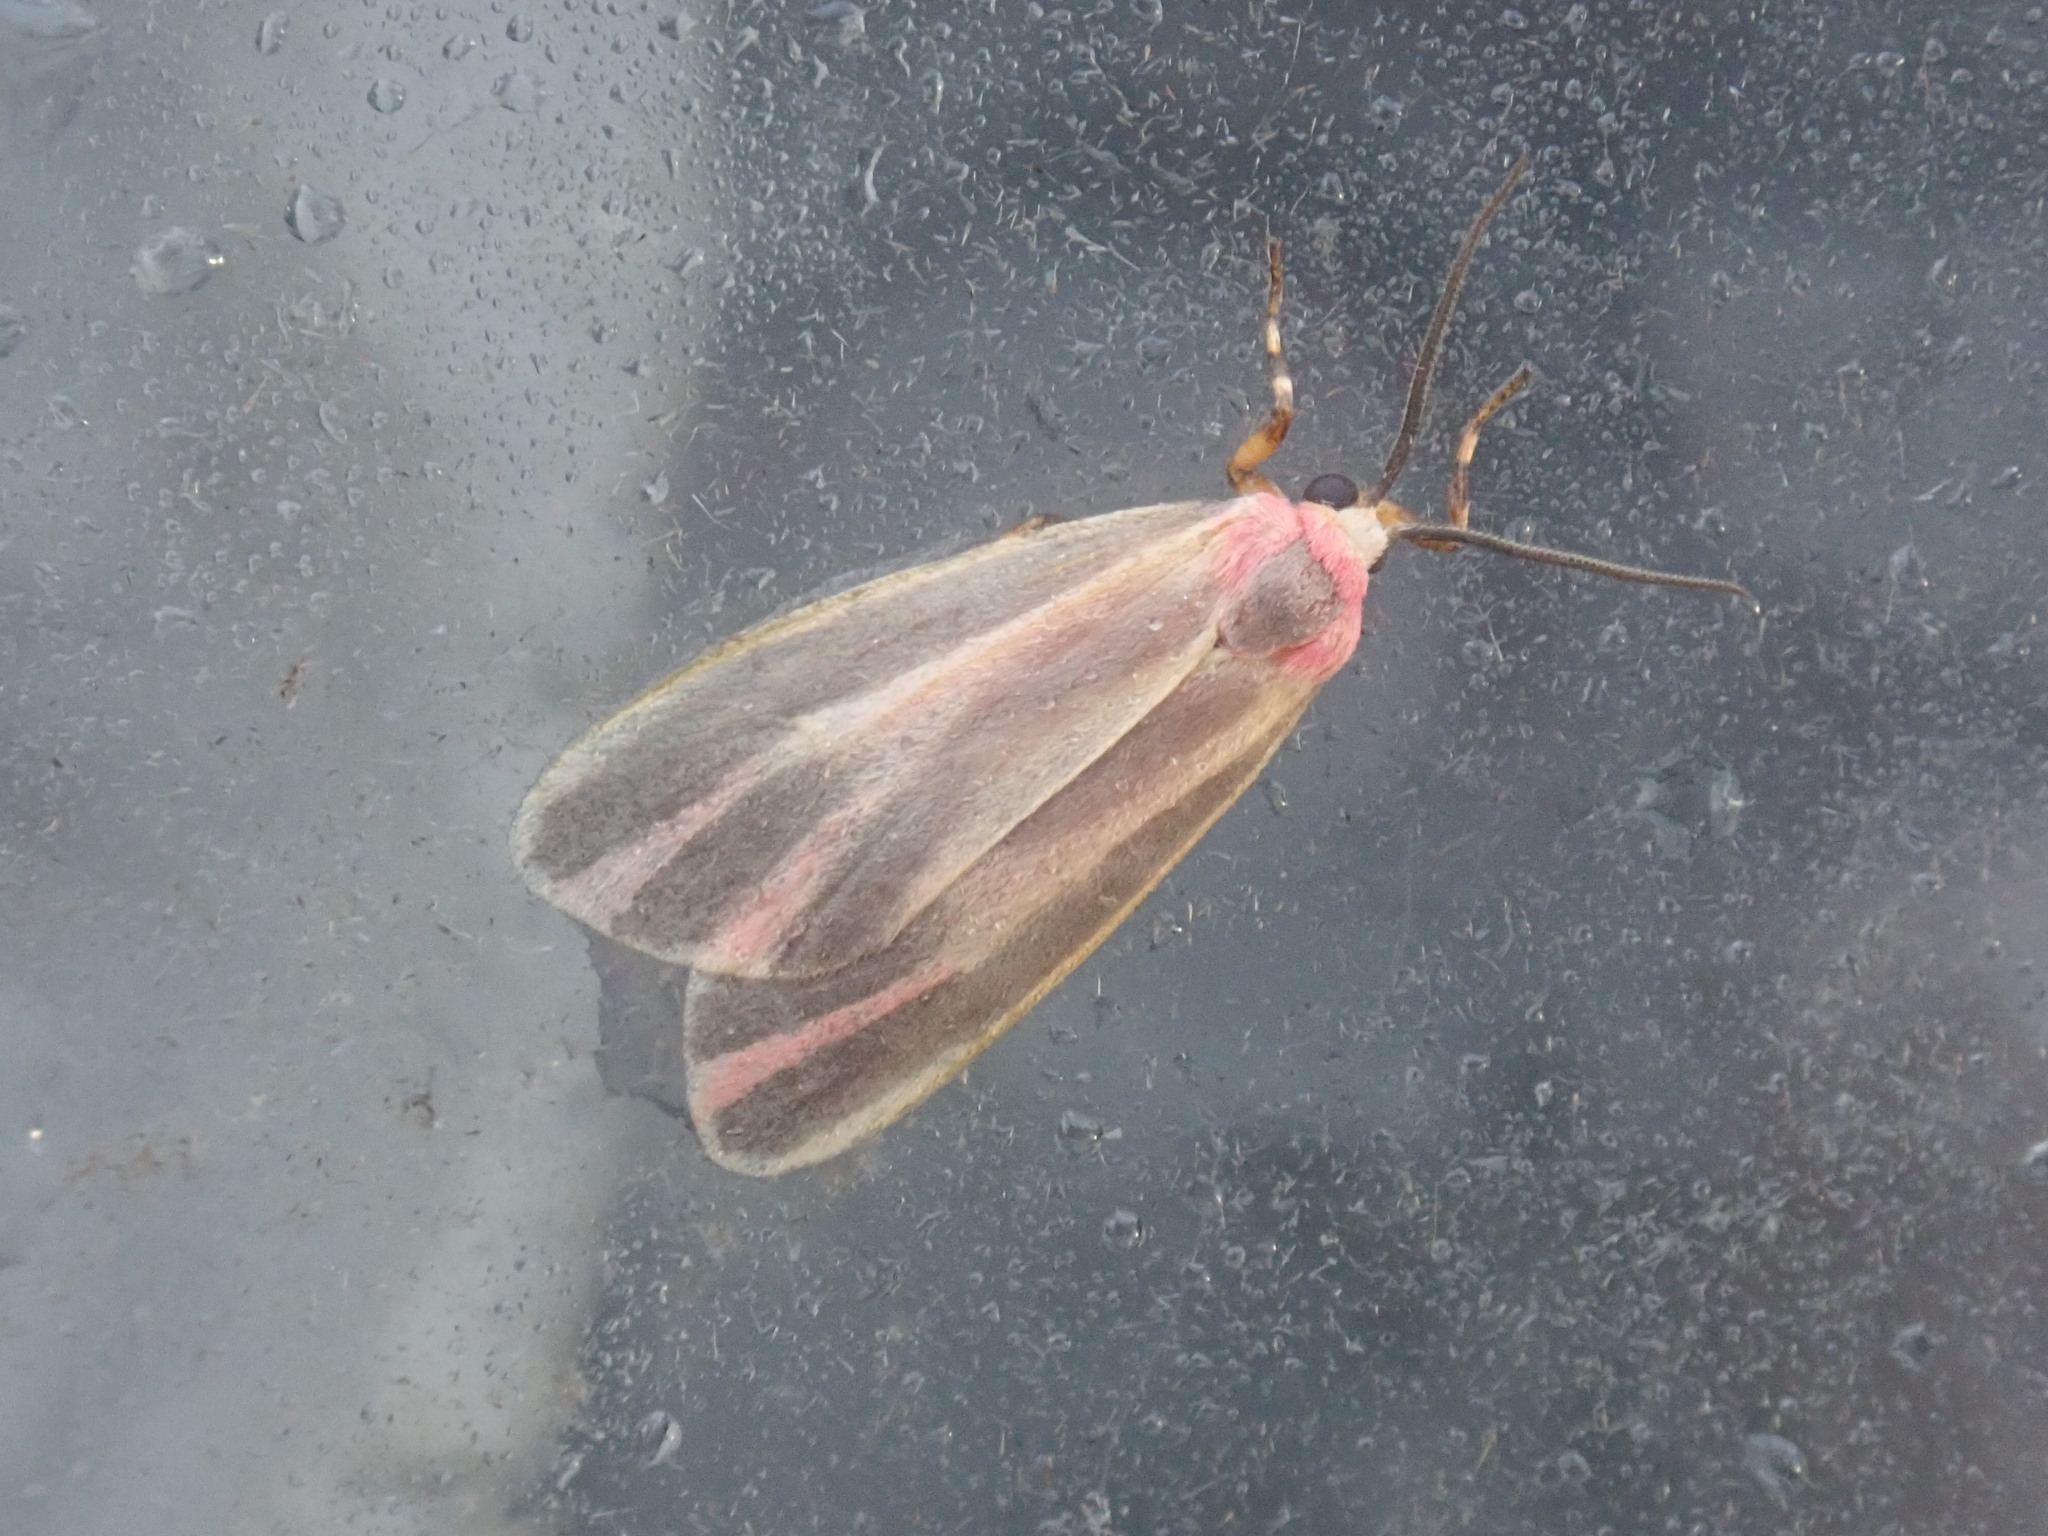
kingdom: Animalia
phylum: Arthropoda
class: Insecta
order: Lepidoptera
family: Erebidae
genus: Hypoprepia
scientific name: Hypoprepia fucosa
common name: Painted lichen moth
